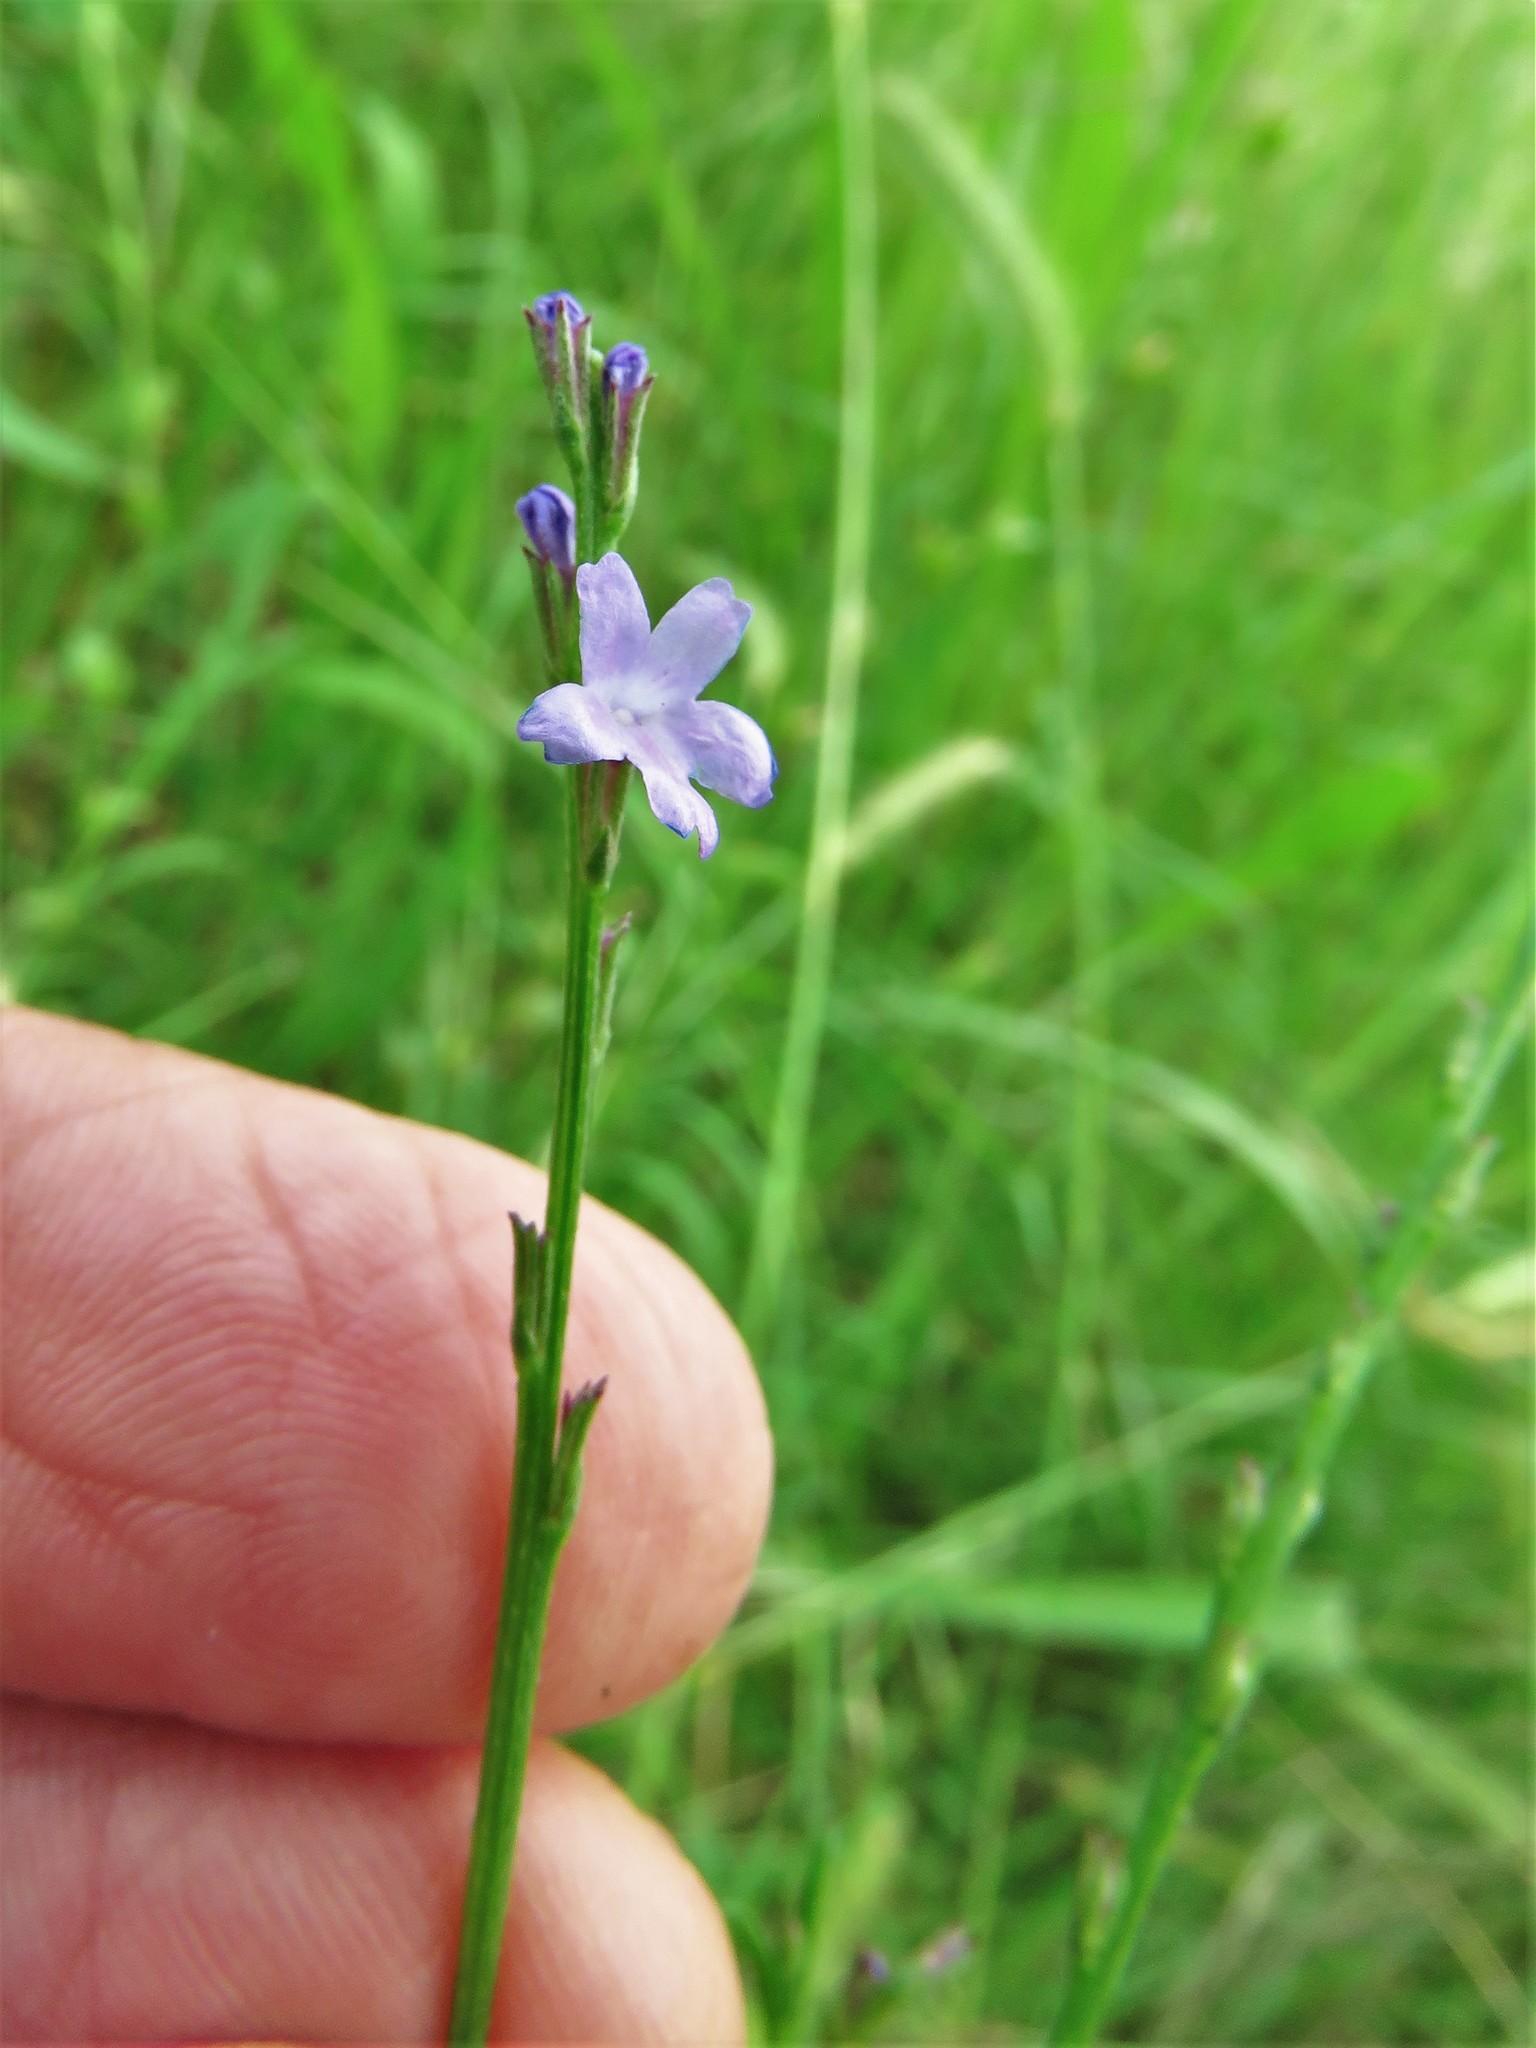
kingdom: Plantae
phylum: Tracheophyta
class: Magnoliopsida
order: Lamiales
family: Verbenaceae
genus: Verbena
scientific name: Verbena halei
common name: Texas vervain
